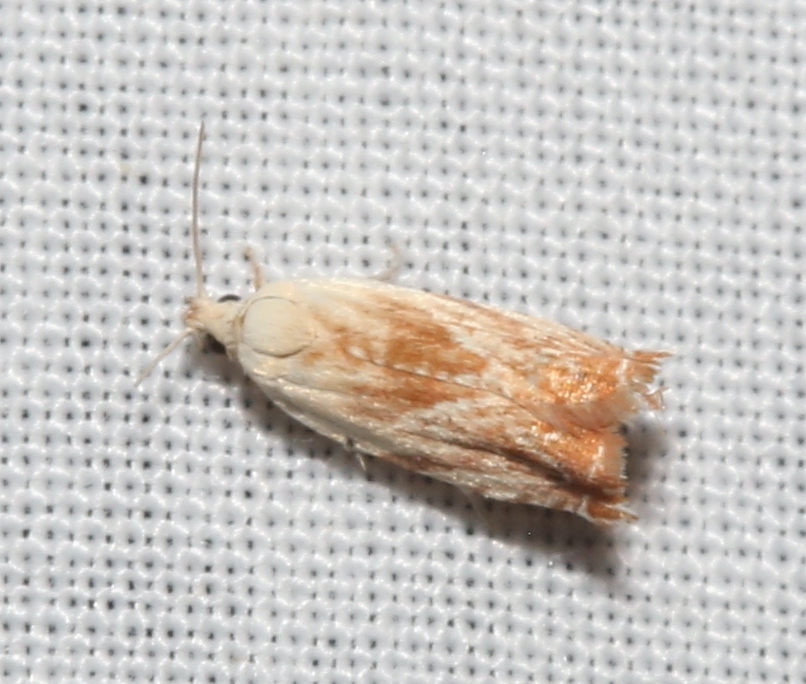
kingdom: Animalia
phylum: Arthropoda
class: Insecta
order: Lepidoptera
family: Tortricidae
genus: Ancylis
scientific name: Ancylis platanana
